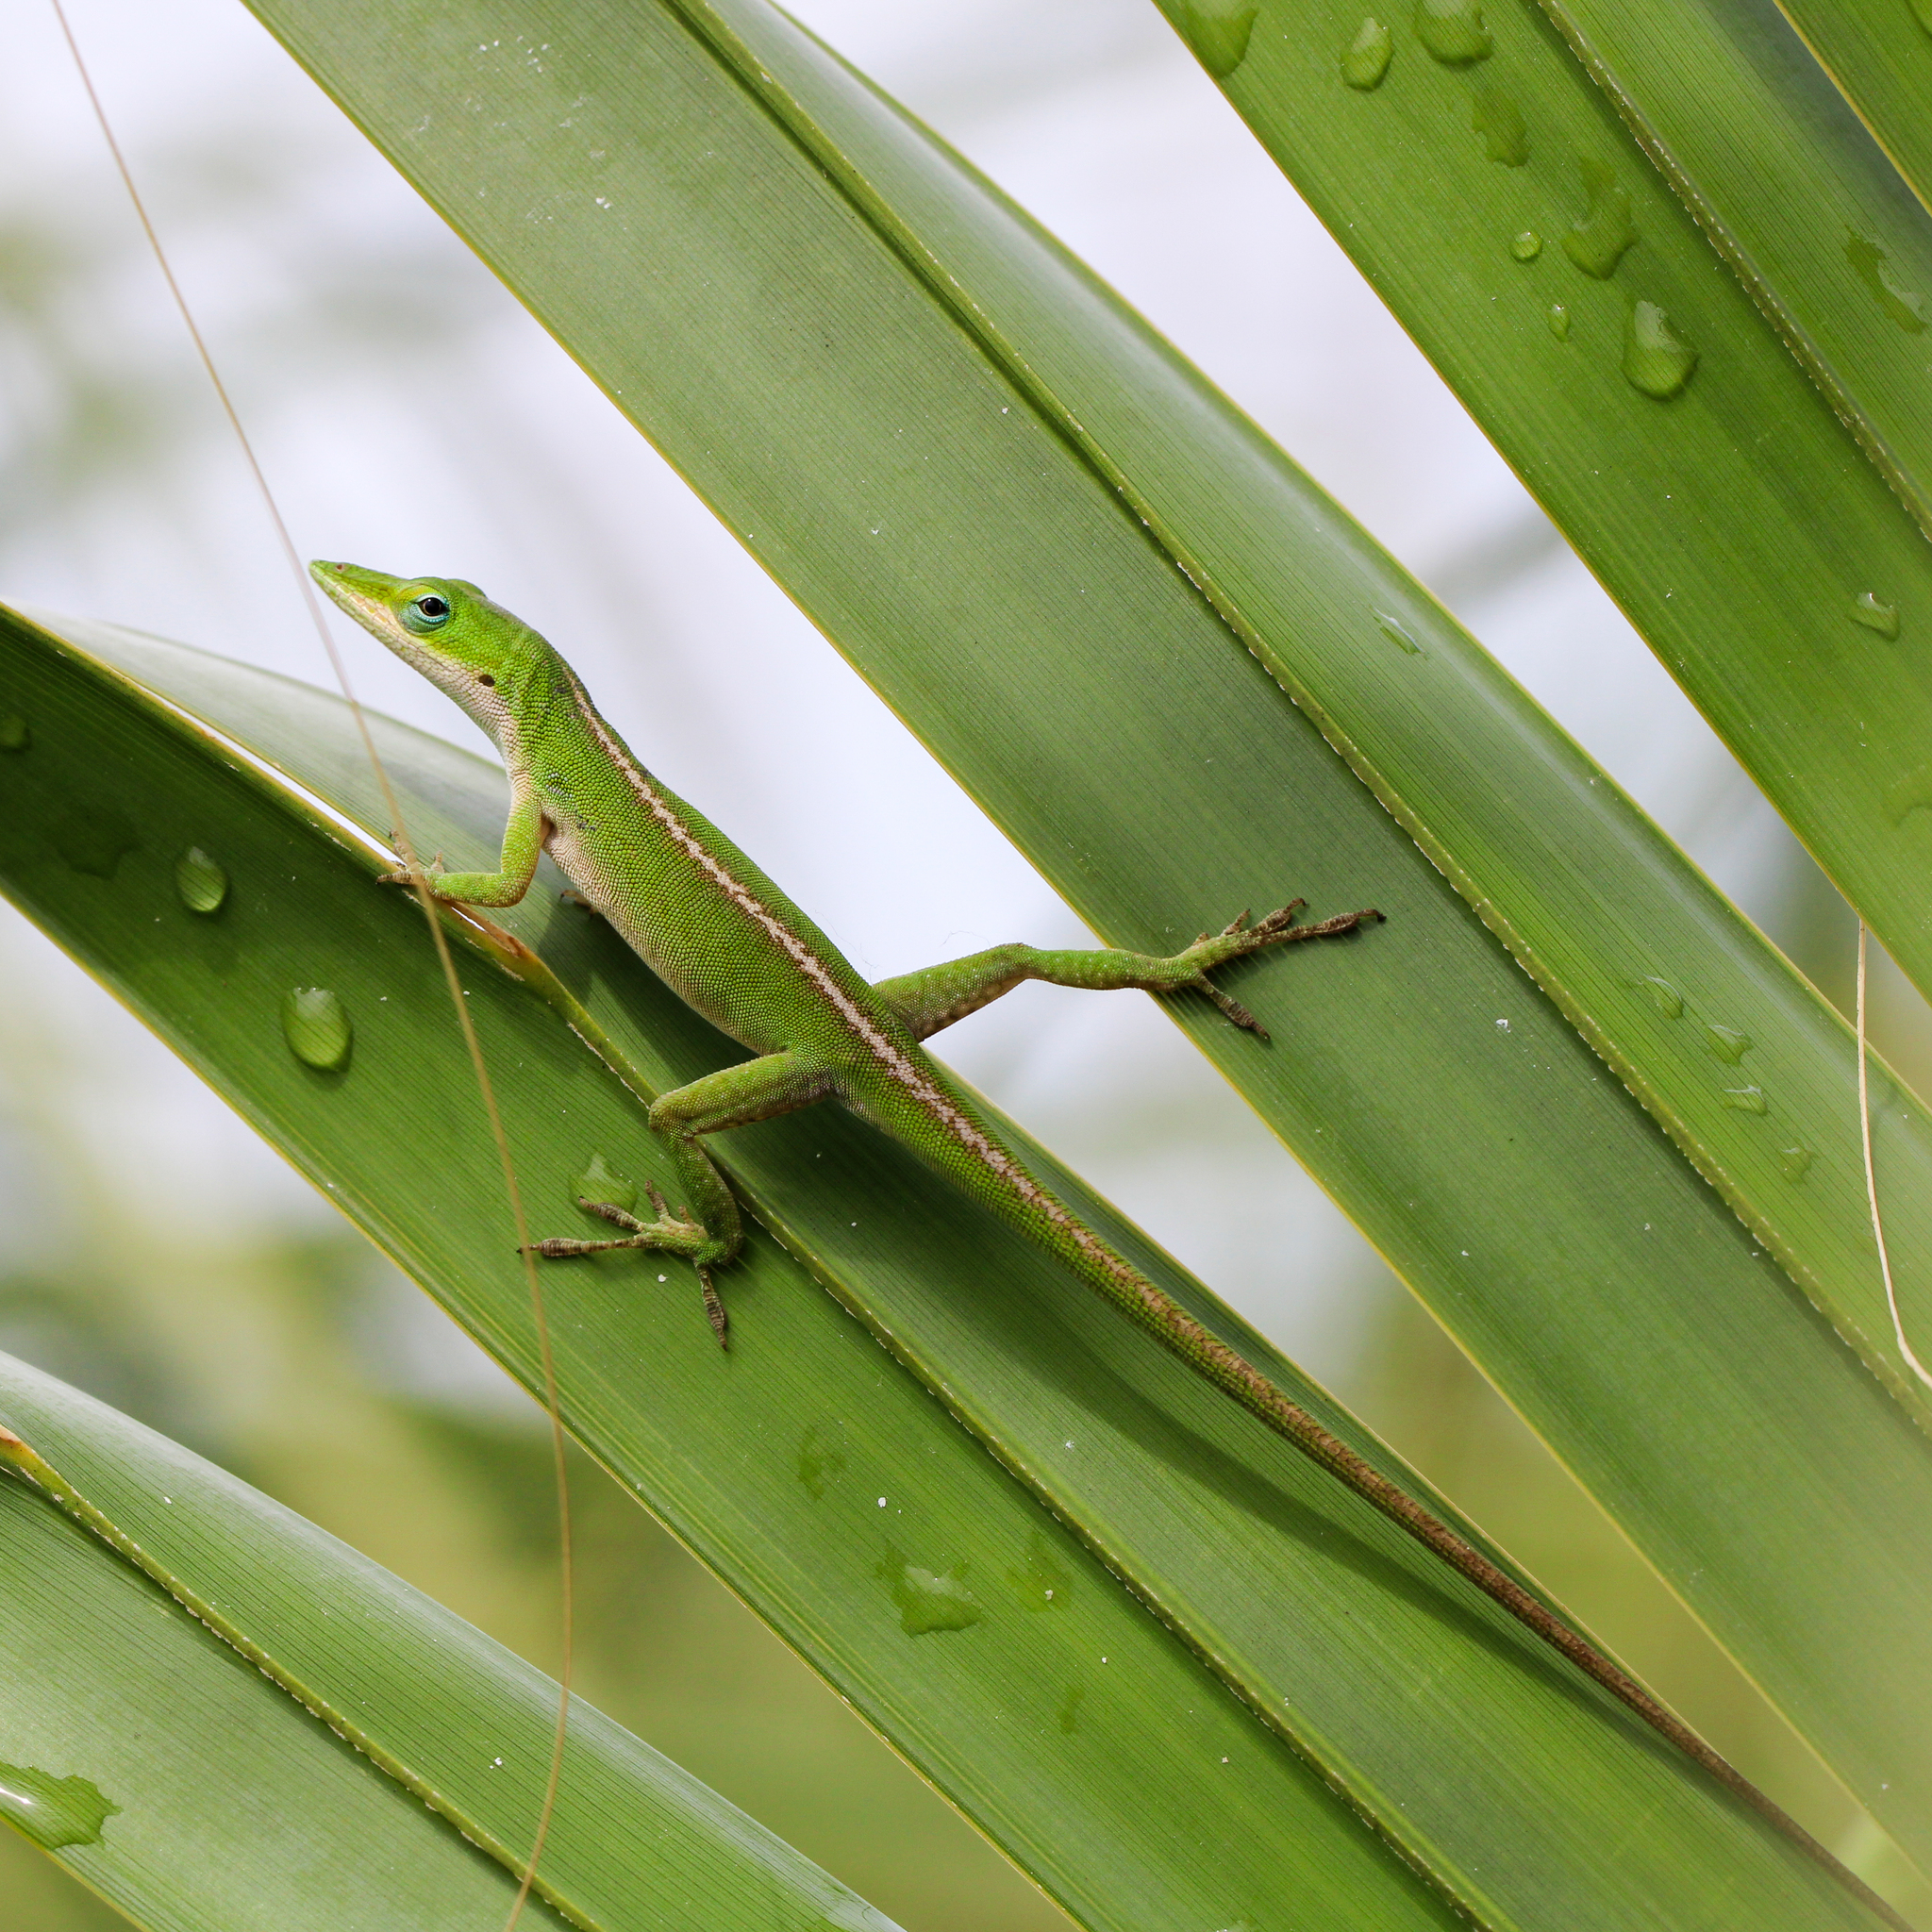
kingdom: Animalia
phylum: Chordata
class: Squamata
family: Dactyloidae
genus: Anolis
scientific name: Anolis carolinensis
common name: Green anole
